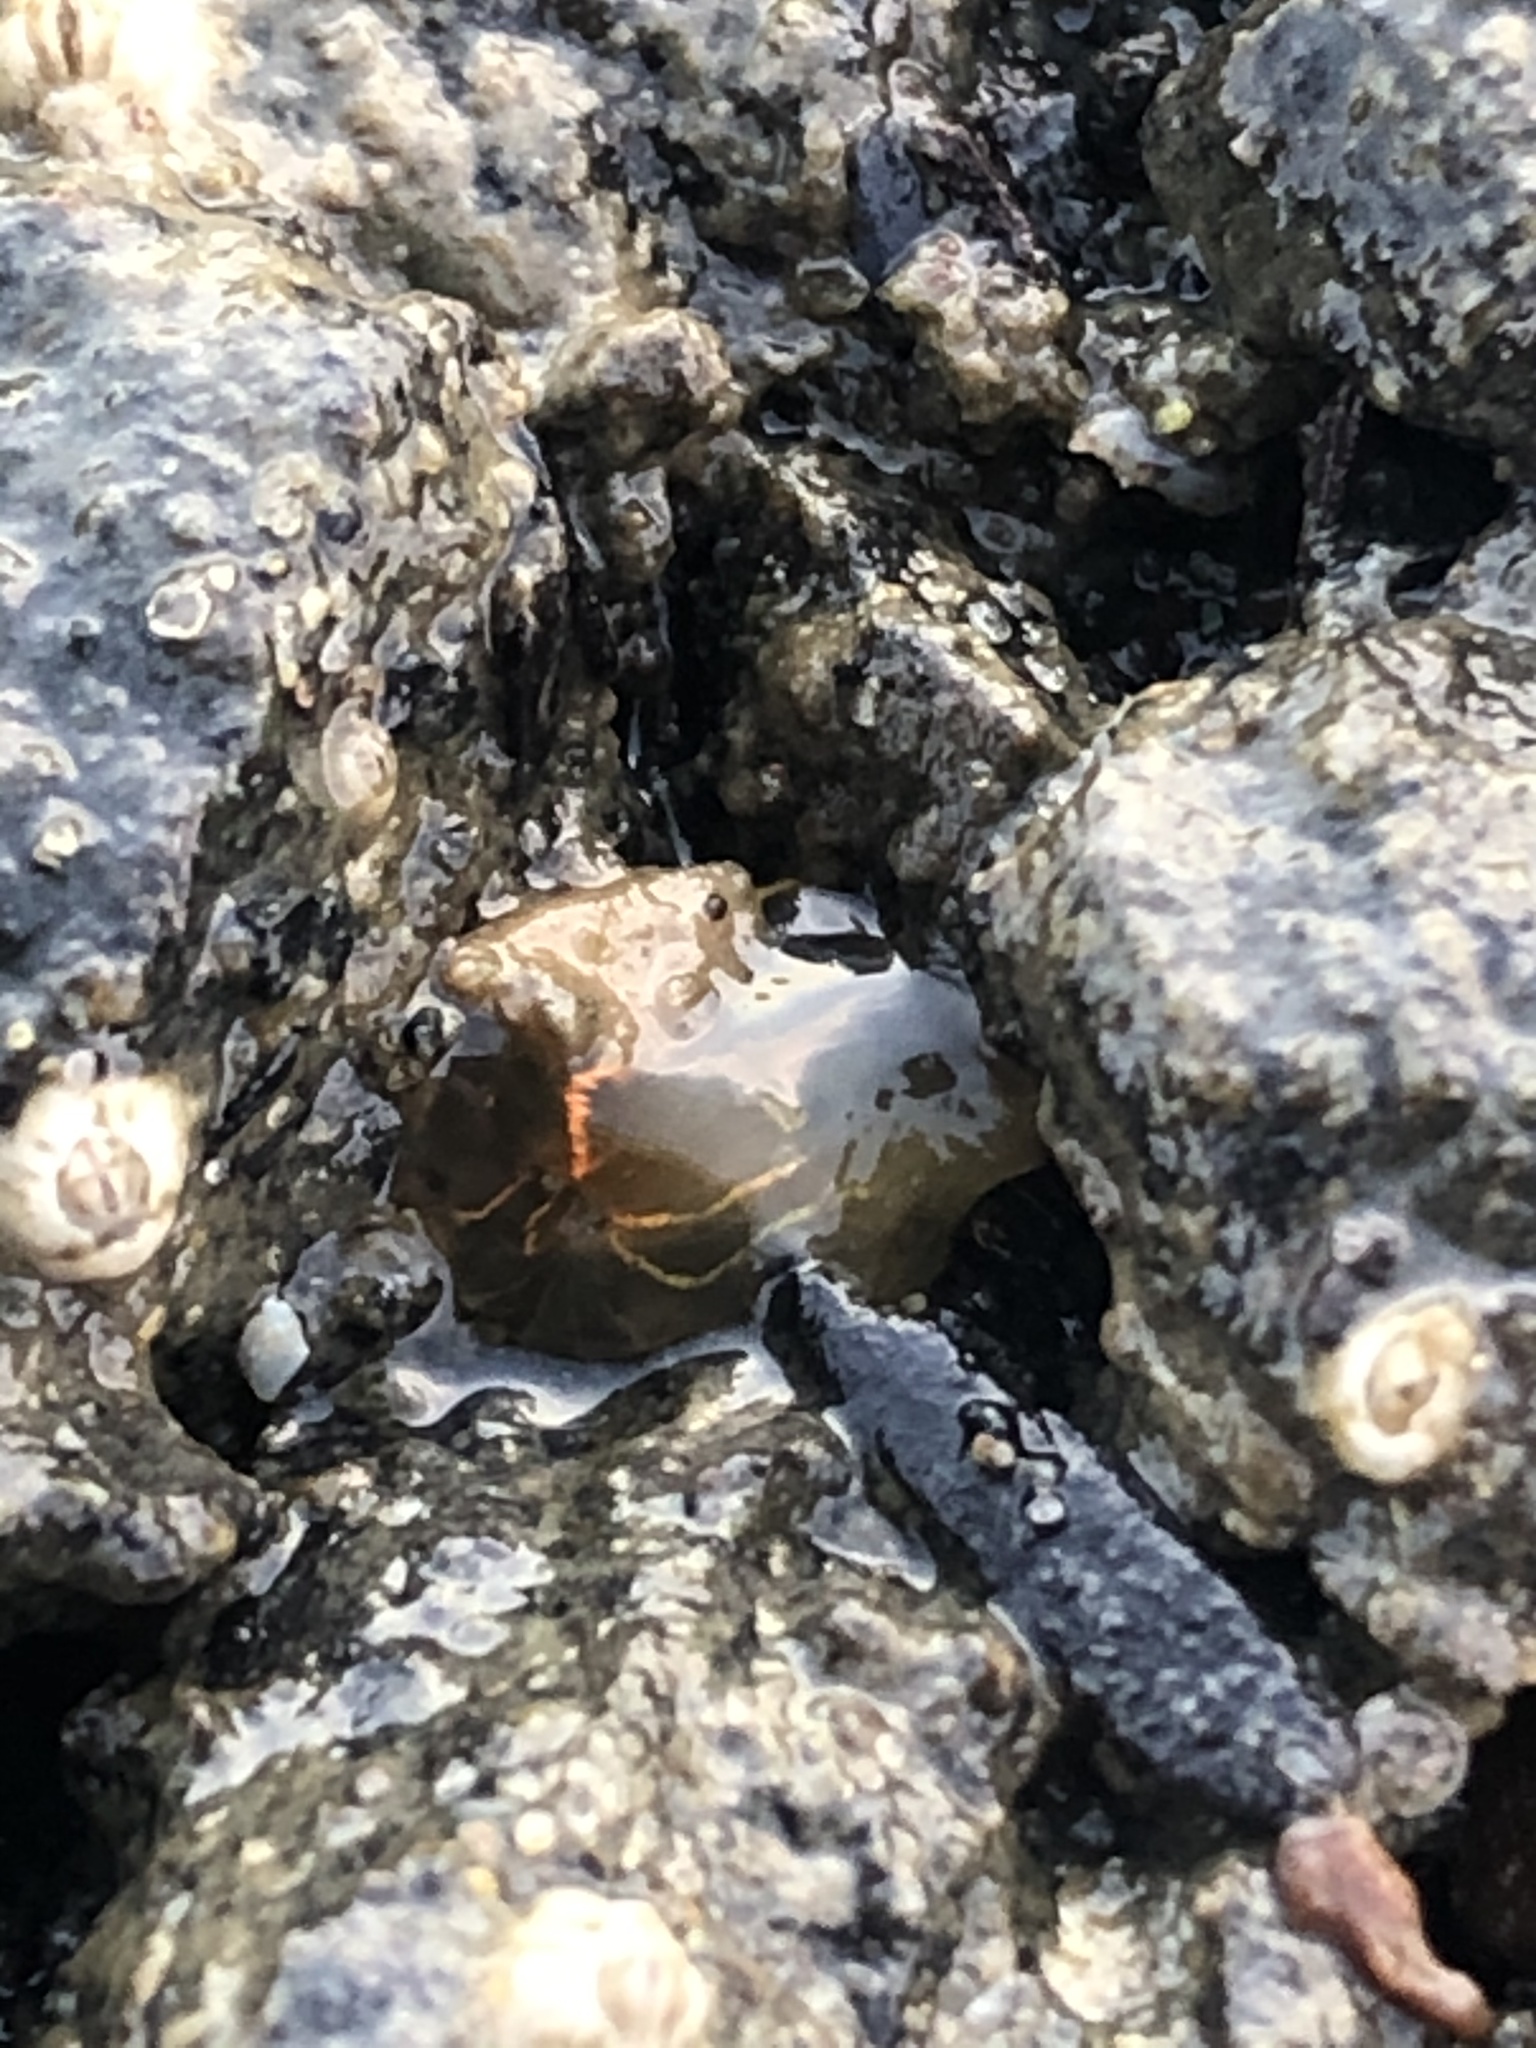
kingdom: Animalia
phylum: Cnidaria
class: Anthozoa
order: Actiniaria
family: Diadumenidae
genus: Diadumene
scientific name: Diadumene lineata
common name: Orange-striped anemone
